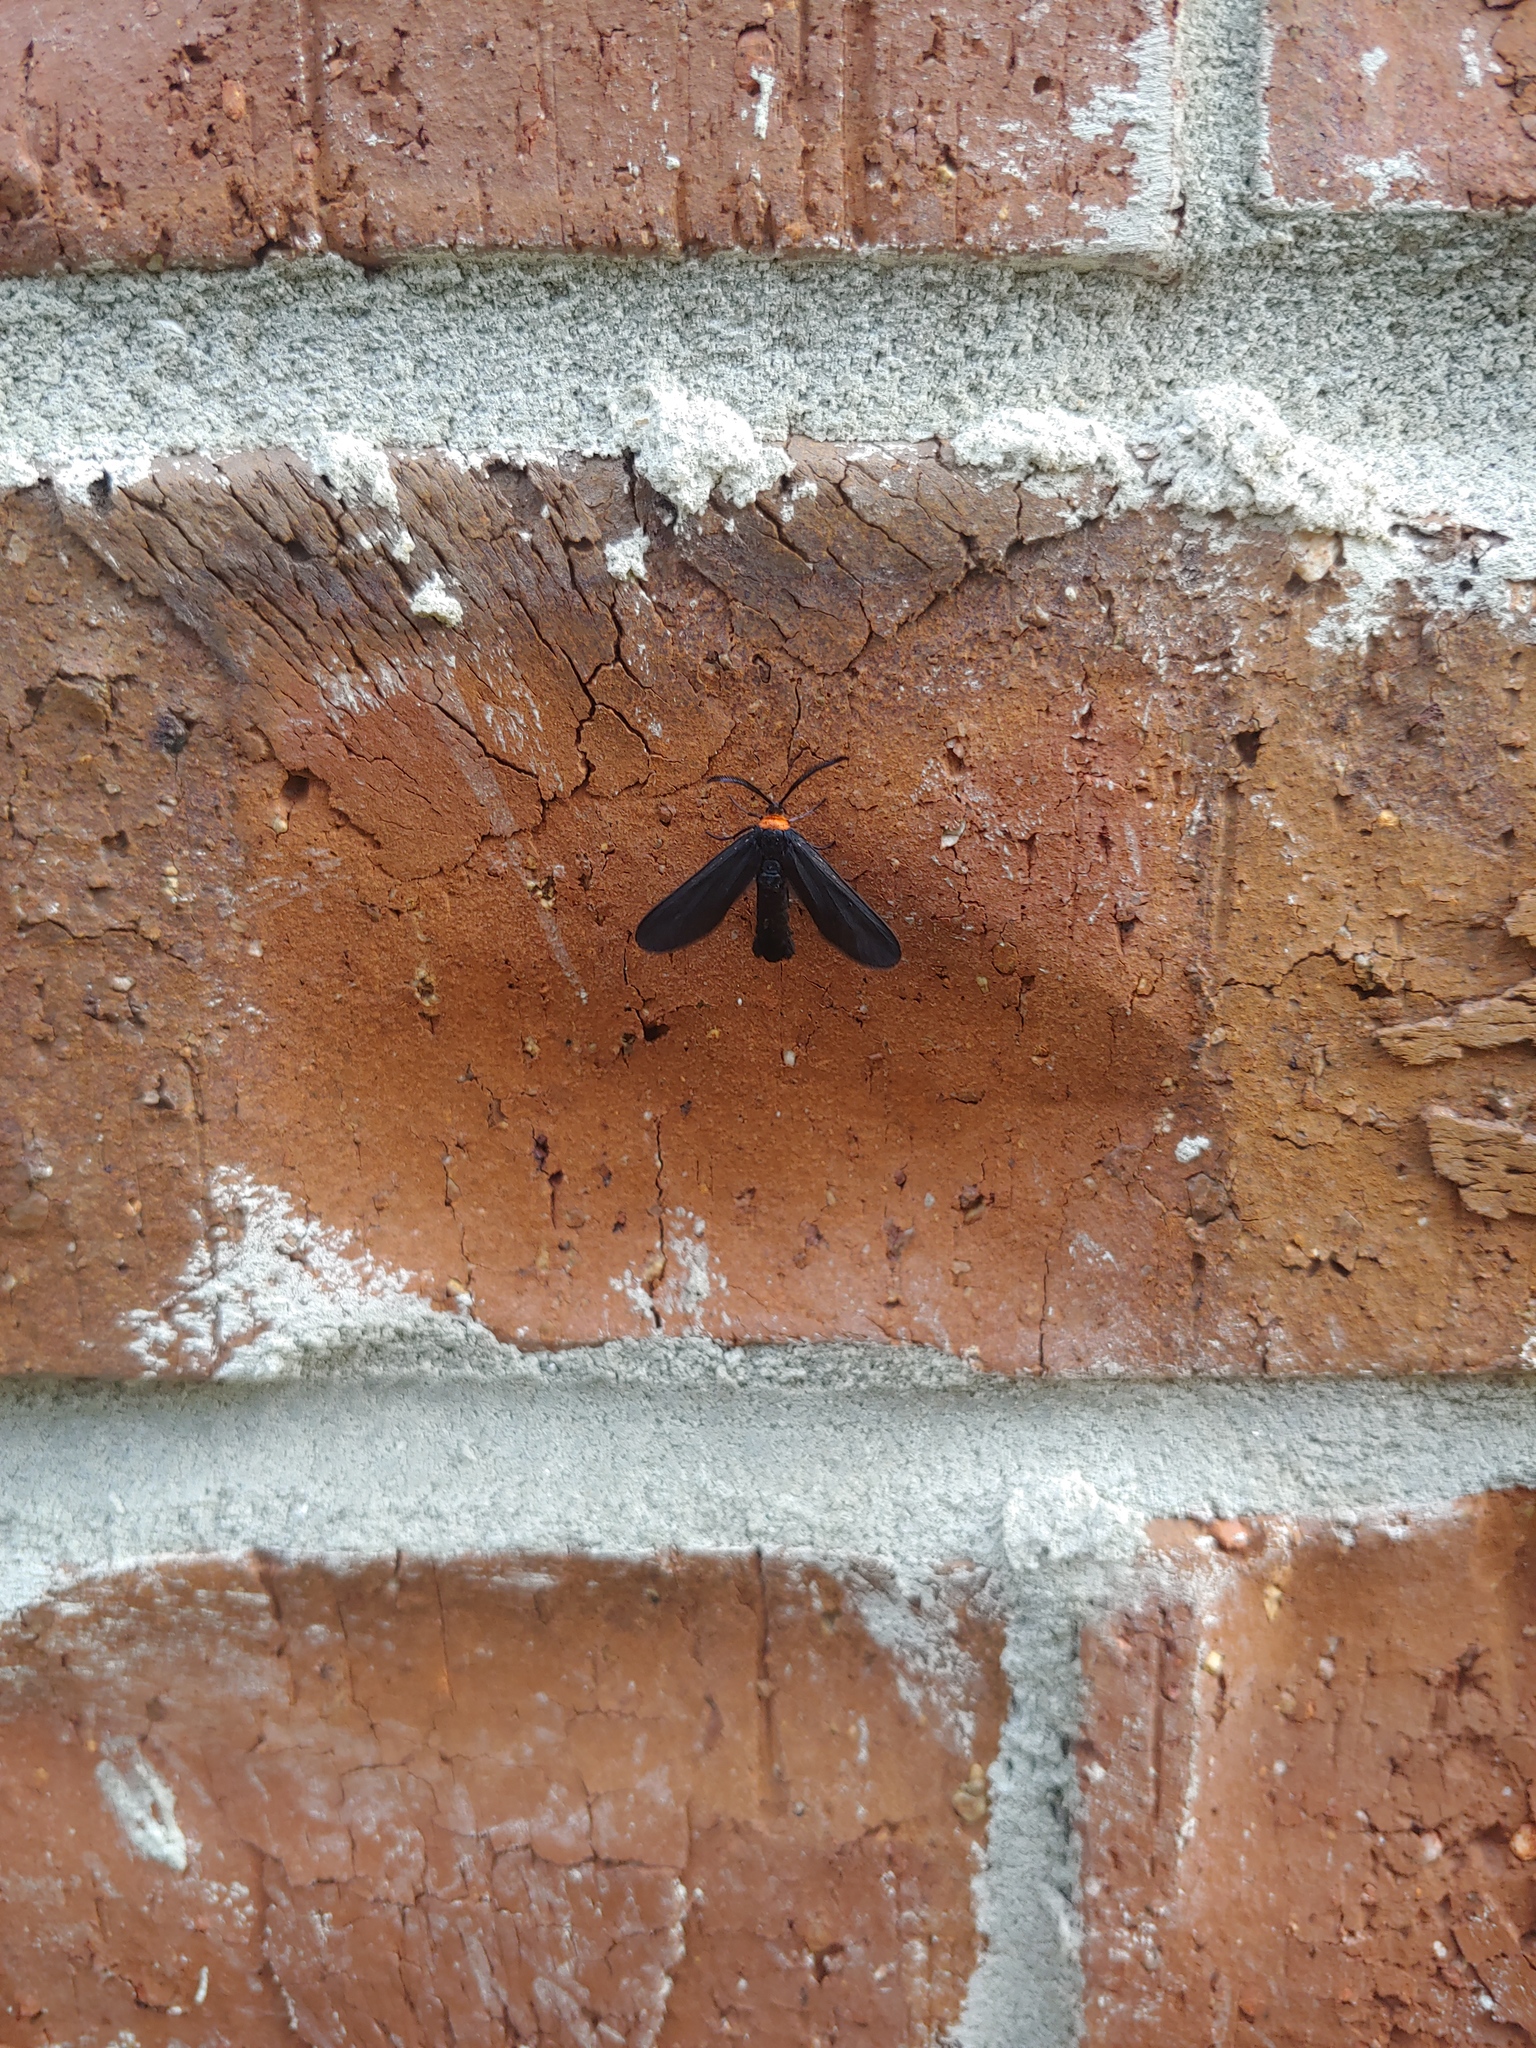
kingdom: Animalia
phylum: Arthropoda
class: Insecta
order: Lepidoptera
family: Zygaenidae
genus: Harrisina
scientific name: Harrisina americana
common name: Grapeleaf skeletonizer moth
